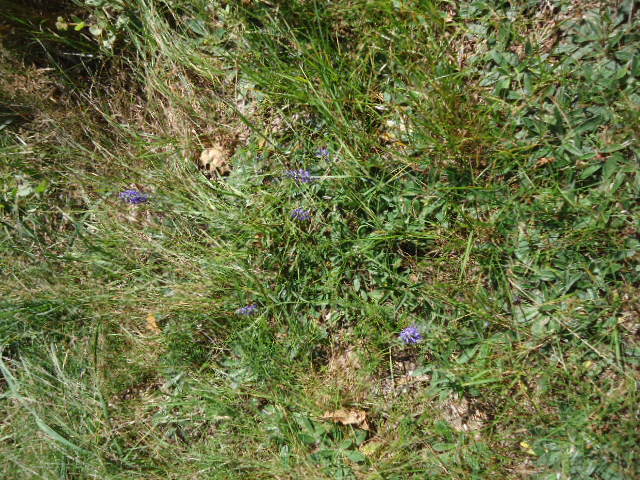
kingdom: Plantae
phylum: Tracheophyta
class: Magnoliopsida
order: Lamiales
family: Plantaginaceae
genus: Veronica
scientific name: Veronica spicata
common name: Spiked speedwell
